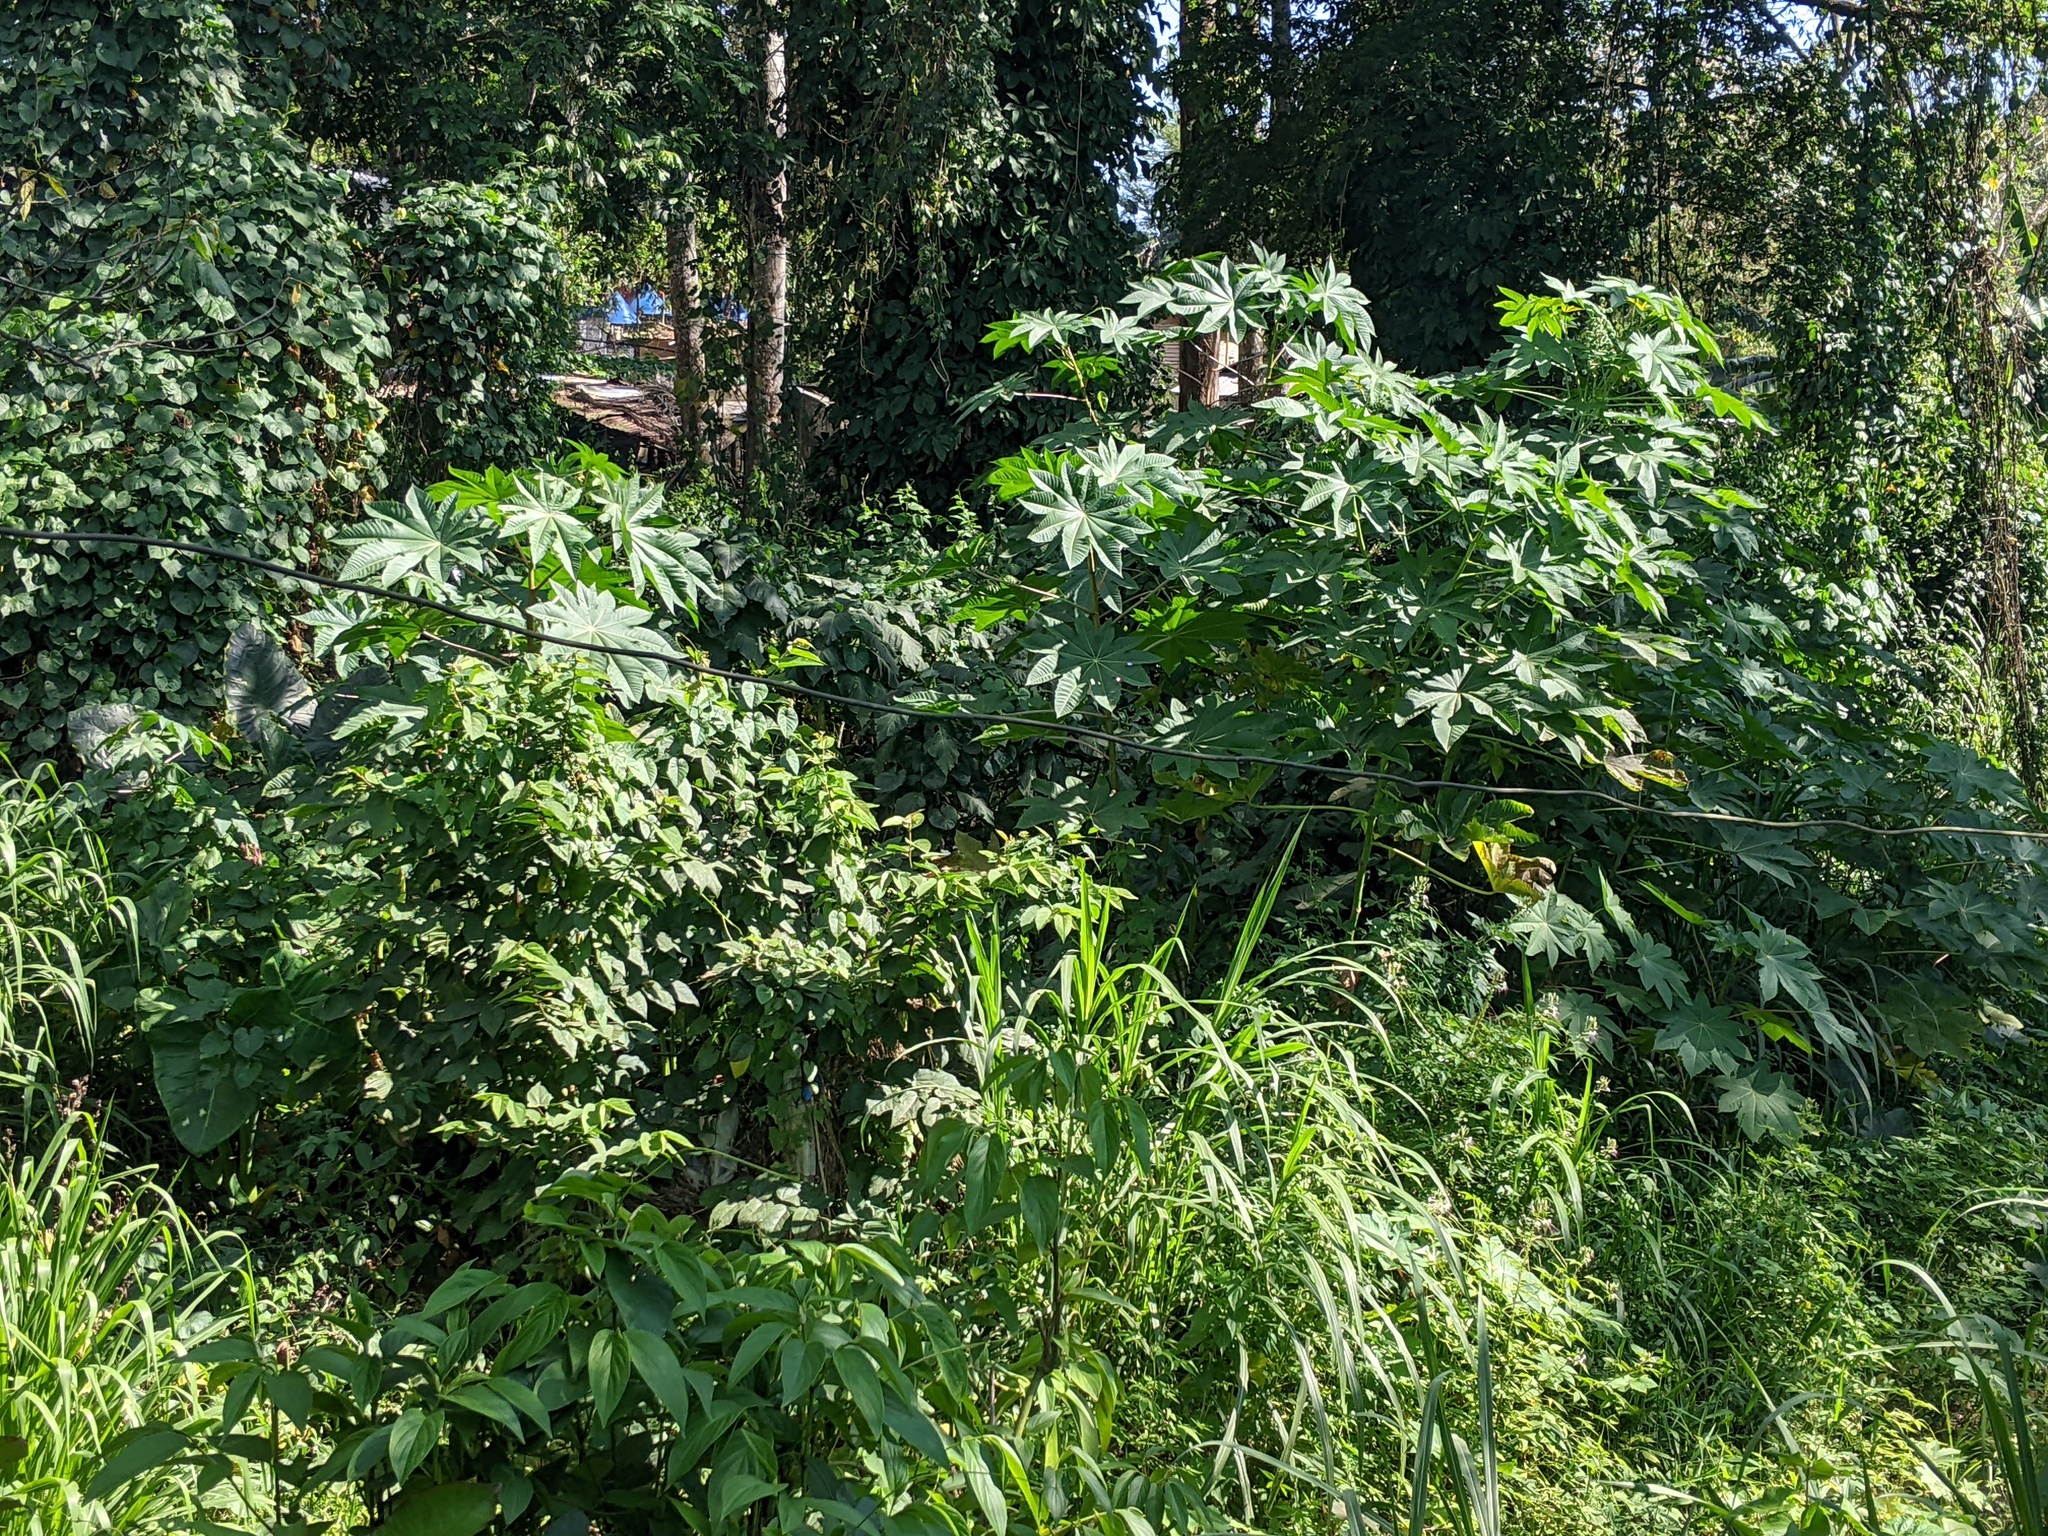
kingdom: Plantae
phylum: Tracheophyta
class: Magnoliopsida
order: Malpighiales
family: Euphorbiaceae
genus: Ricinus
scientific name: Ricinus communis
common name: Castor-oil-plant
